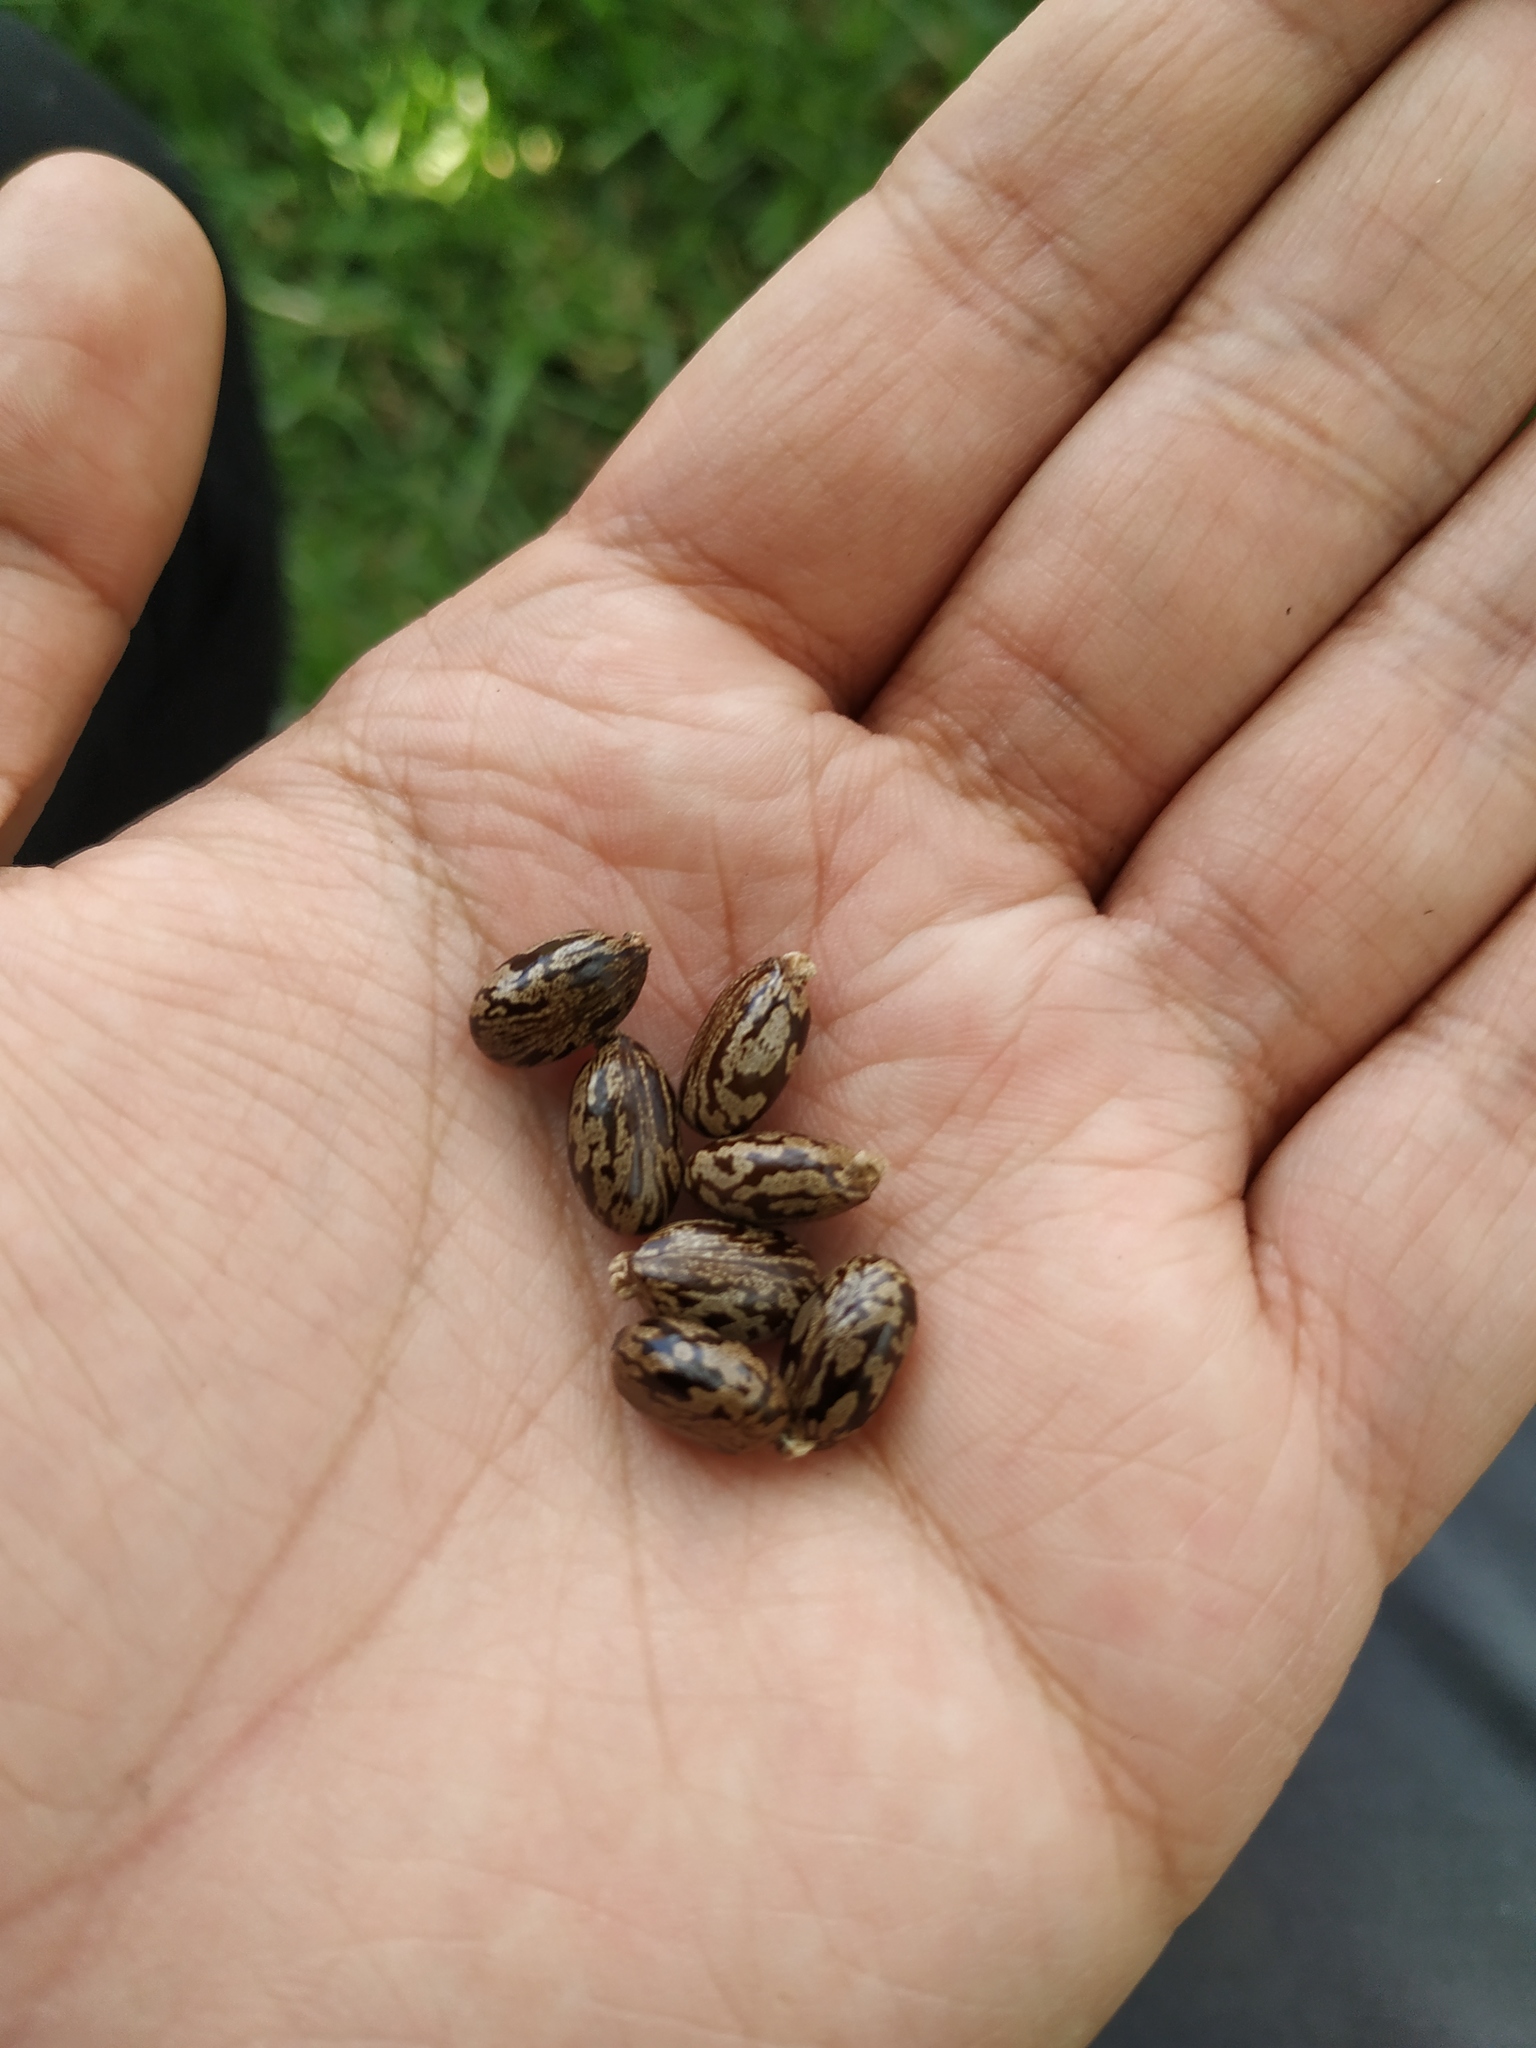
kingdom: Plantae
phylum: Tracheophyta
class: Magnoliopsida
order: Malpighiales
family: Euphorbiaceae
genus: Ricinus
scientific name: Ricinus communis
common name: Castor-oil-plant
